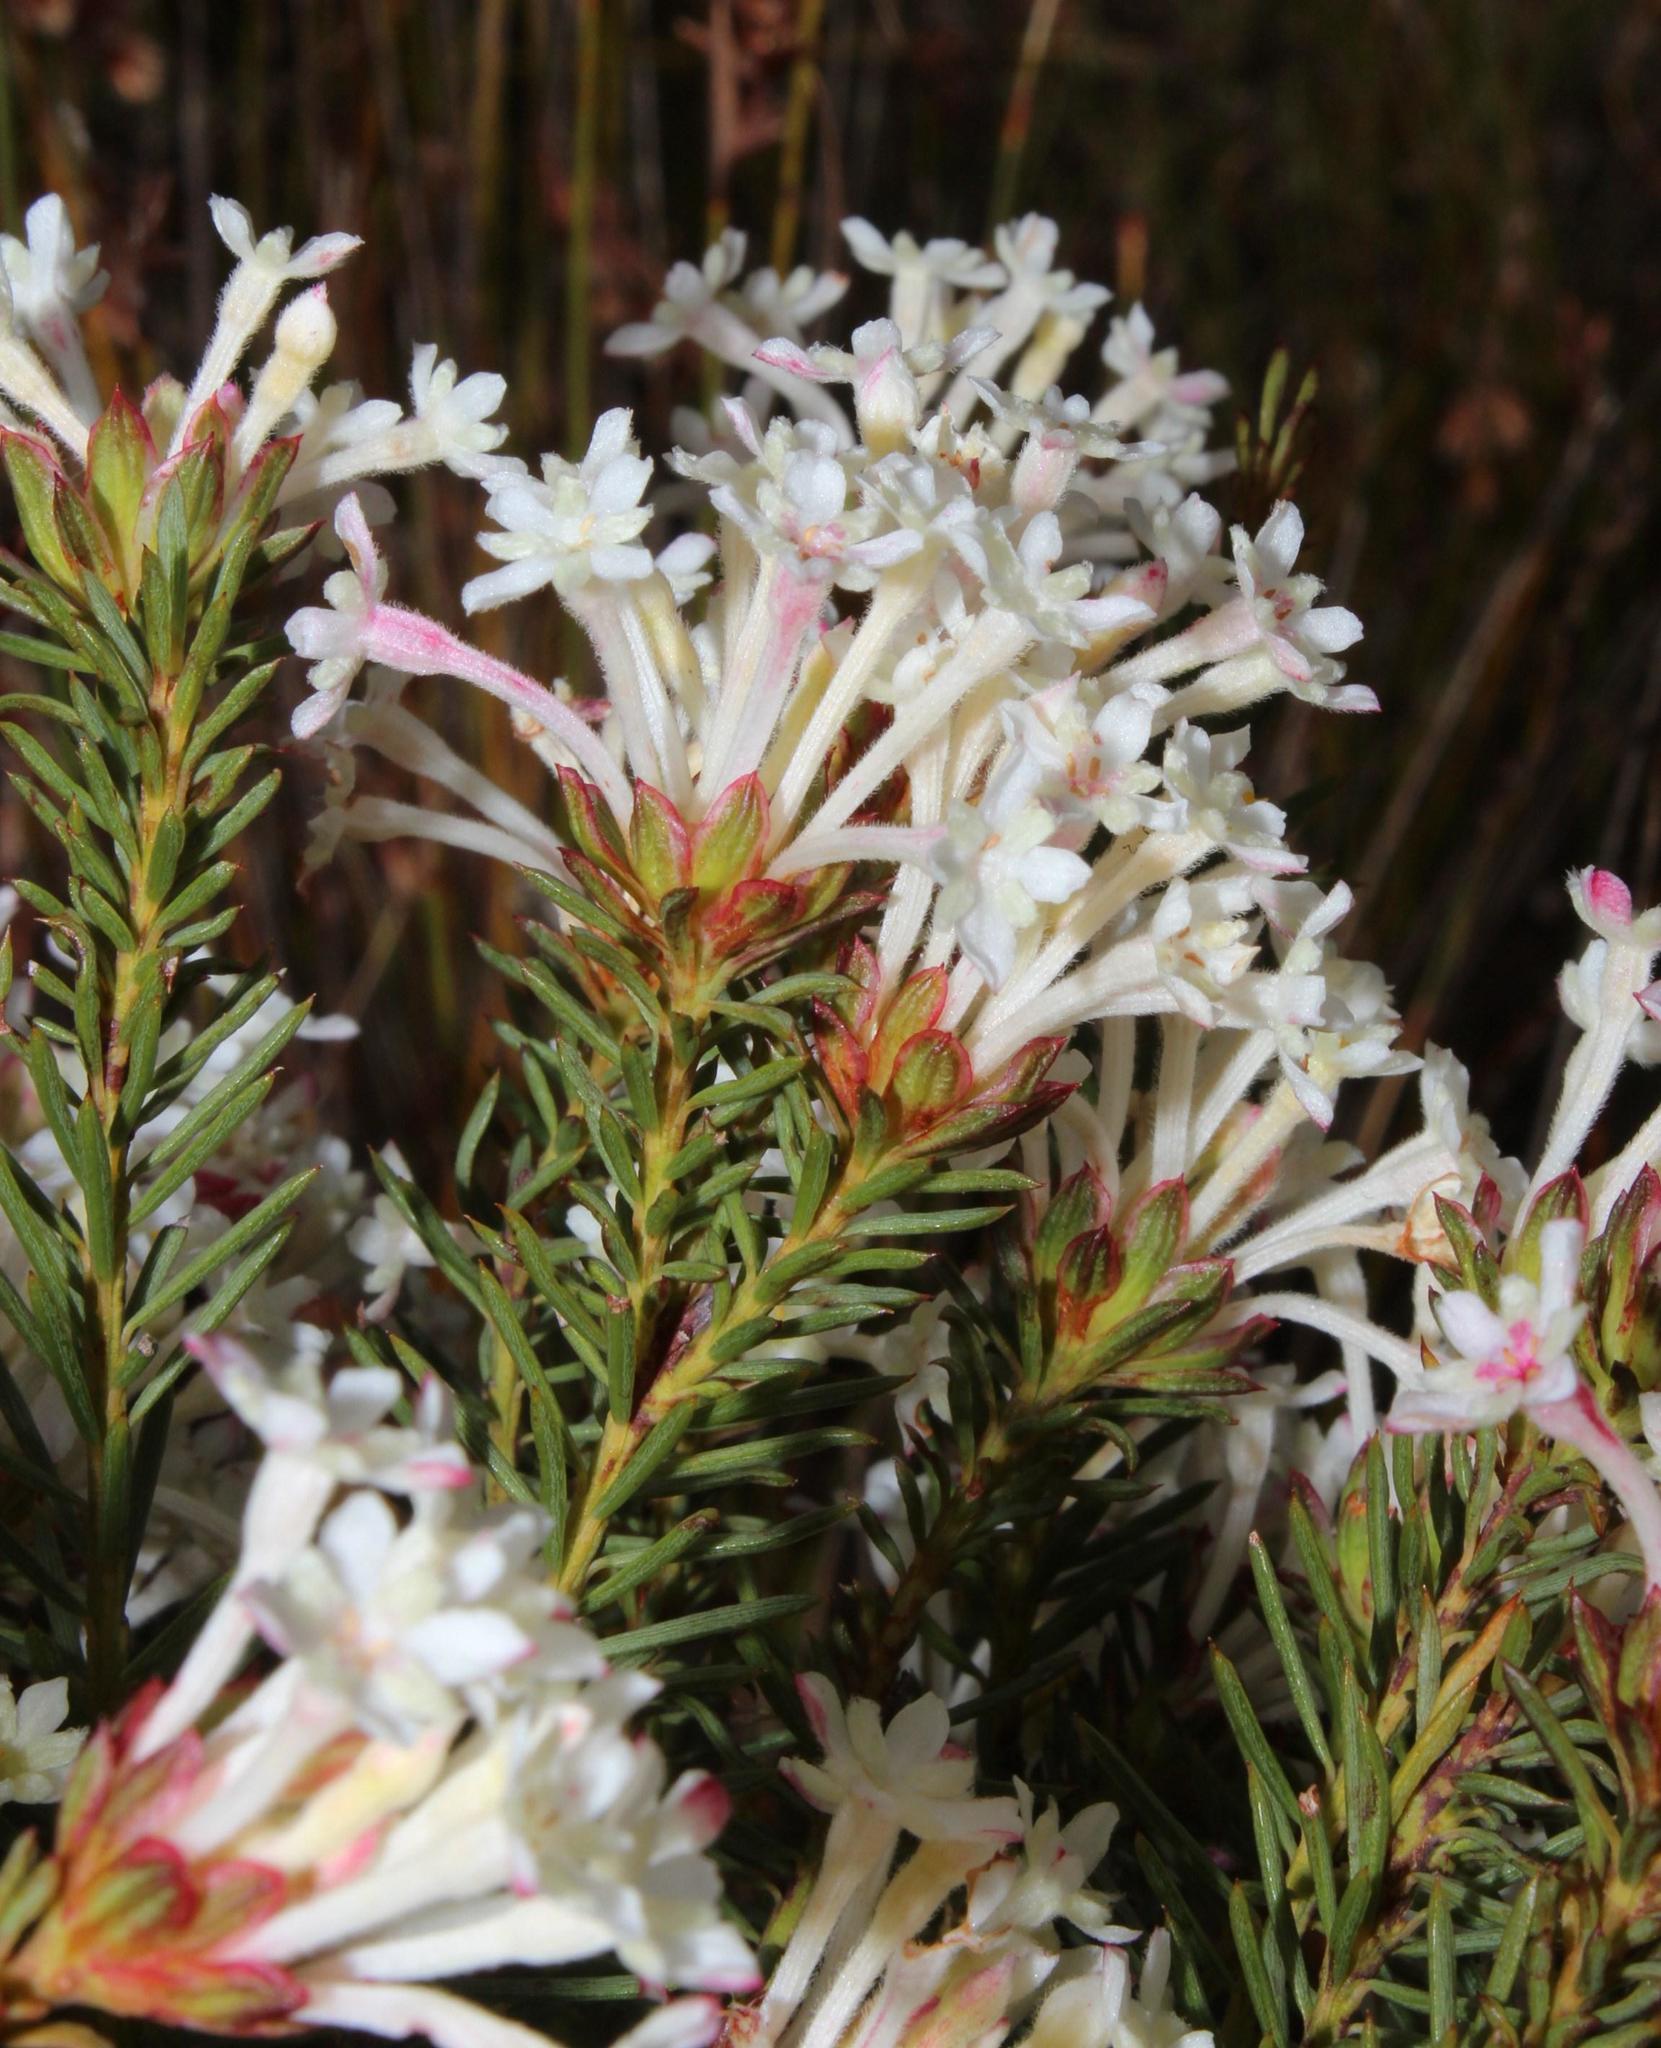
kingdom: Plantae
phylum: Tracheophyta
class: Magnoliopsida
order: Malvales
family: Thymelaeaceae
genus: Gnidia
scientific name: Gnidia pinifolia
